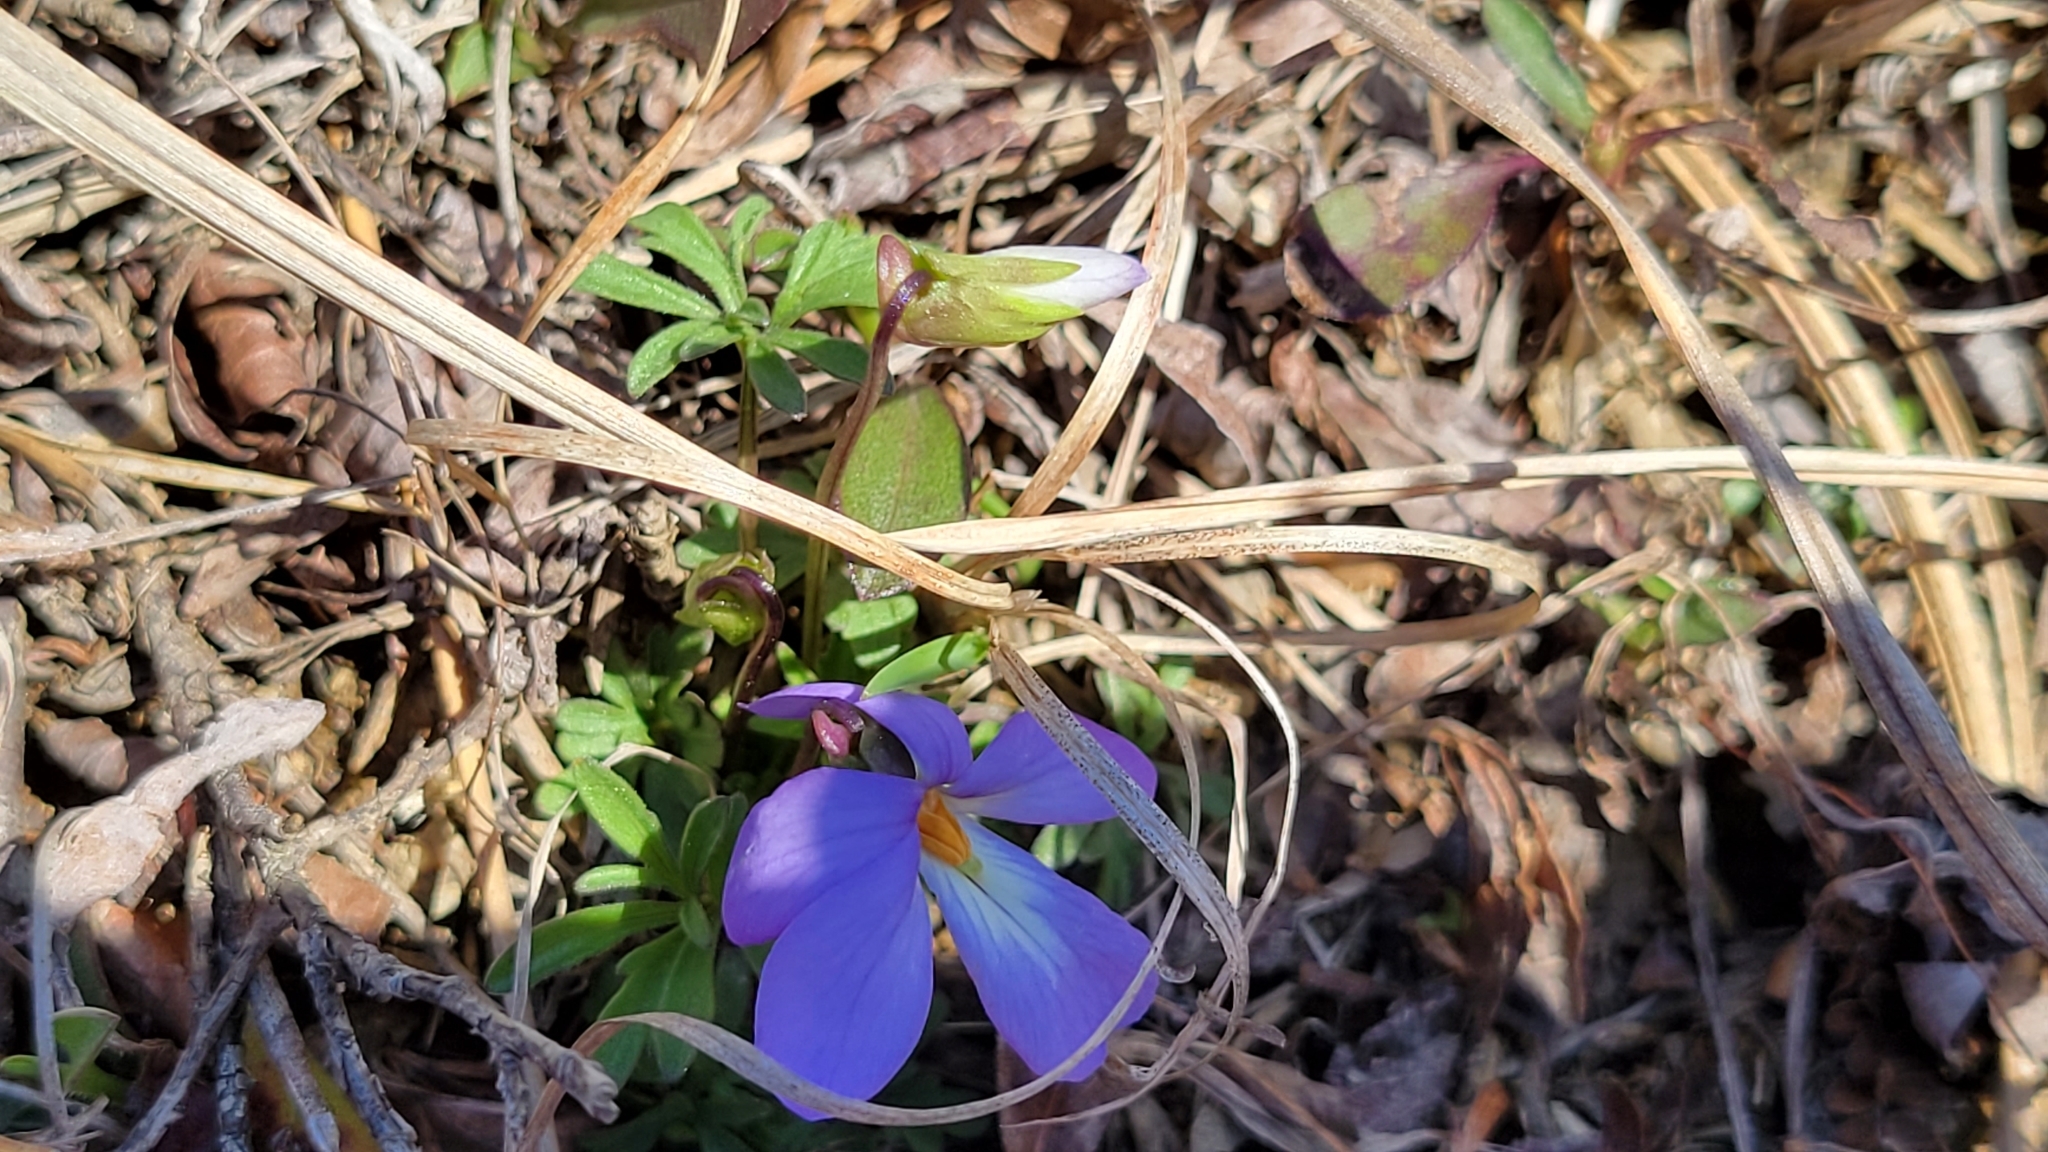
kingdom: Plantae
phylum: Tracheophyta
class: Magnoliopsida
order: Malpighiales
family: Violaceae
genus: Viola
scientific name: Viola pedata
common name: Pansy violet
